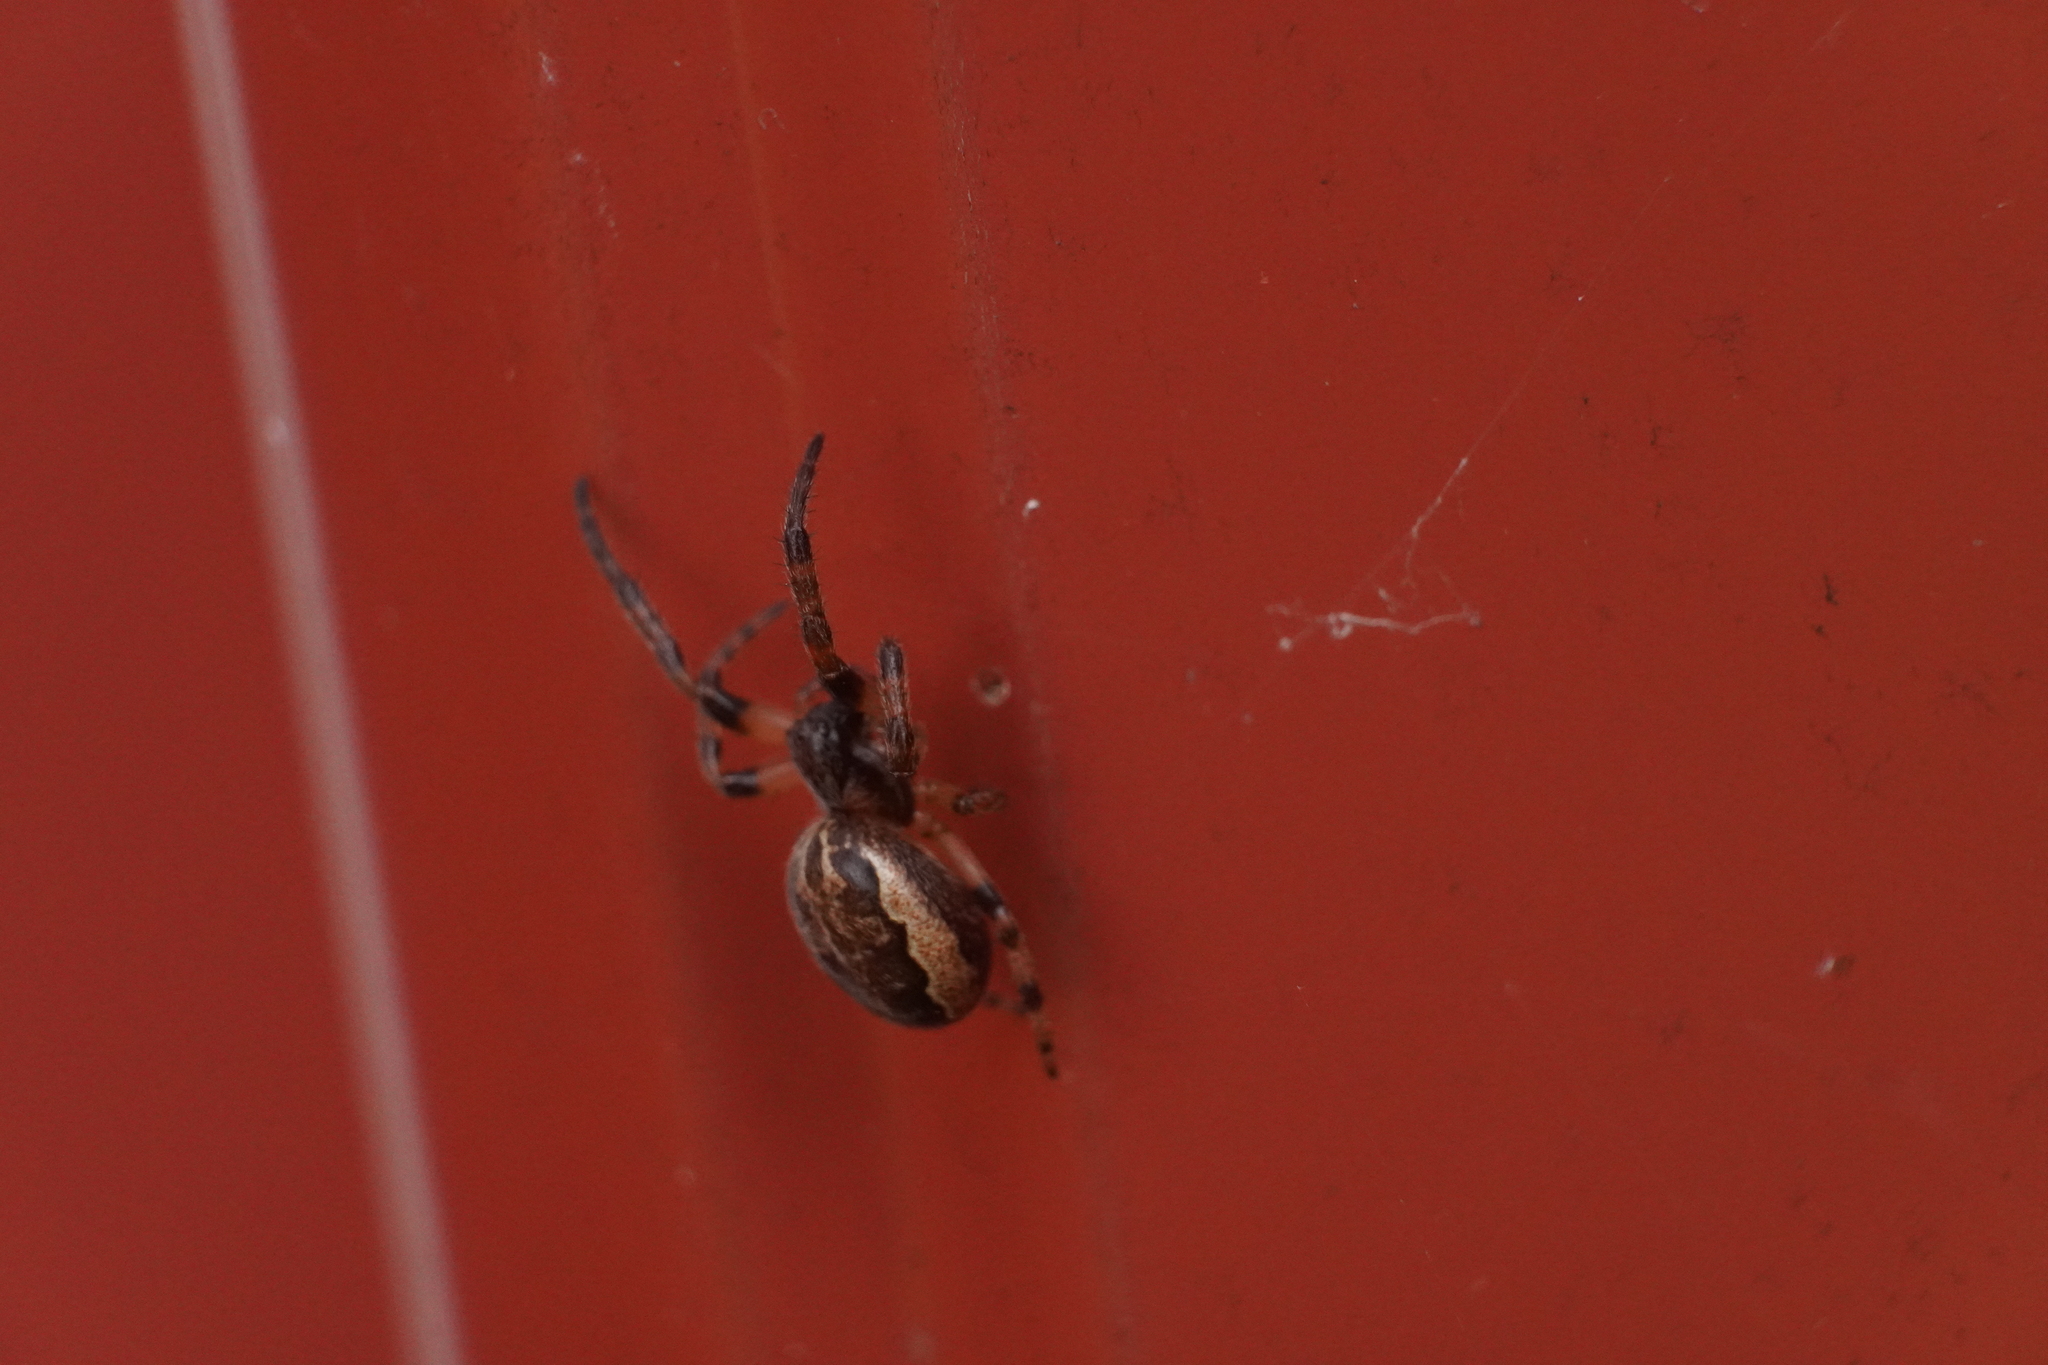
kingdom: Animalia
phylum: Arthropoda
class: Arachnida
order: Araneae
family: Araneidae
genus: Larinioides
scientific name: Larinioides cornutus
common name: Furrow orbweaver
